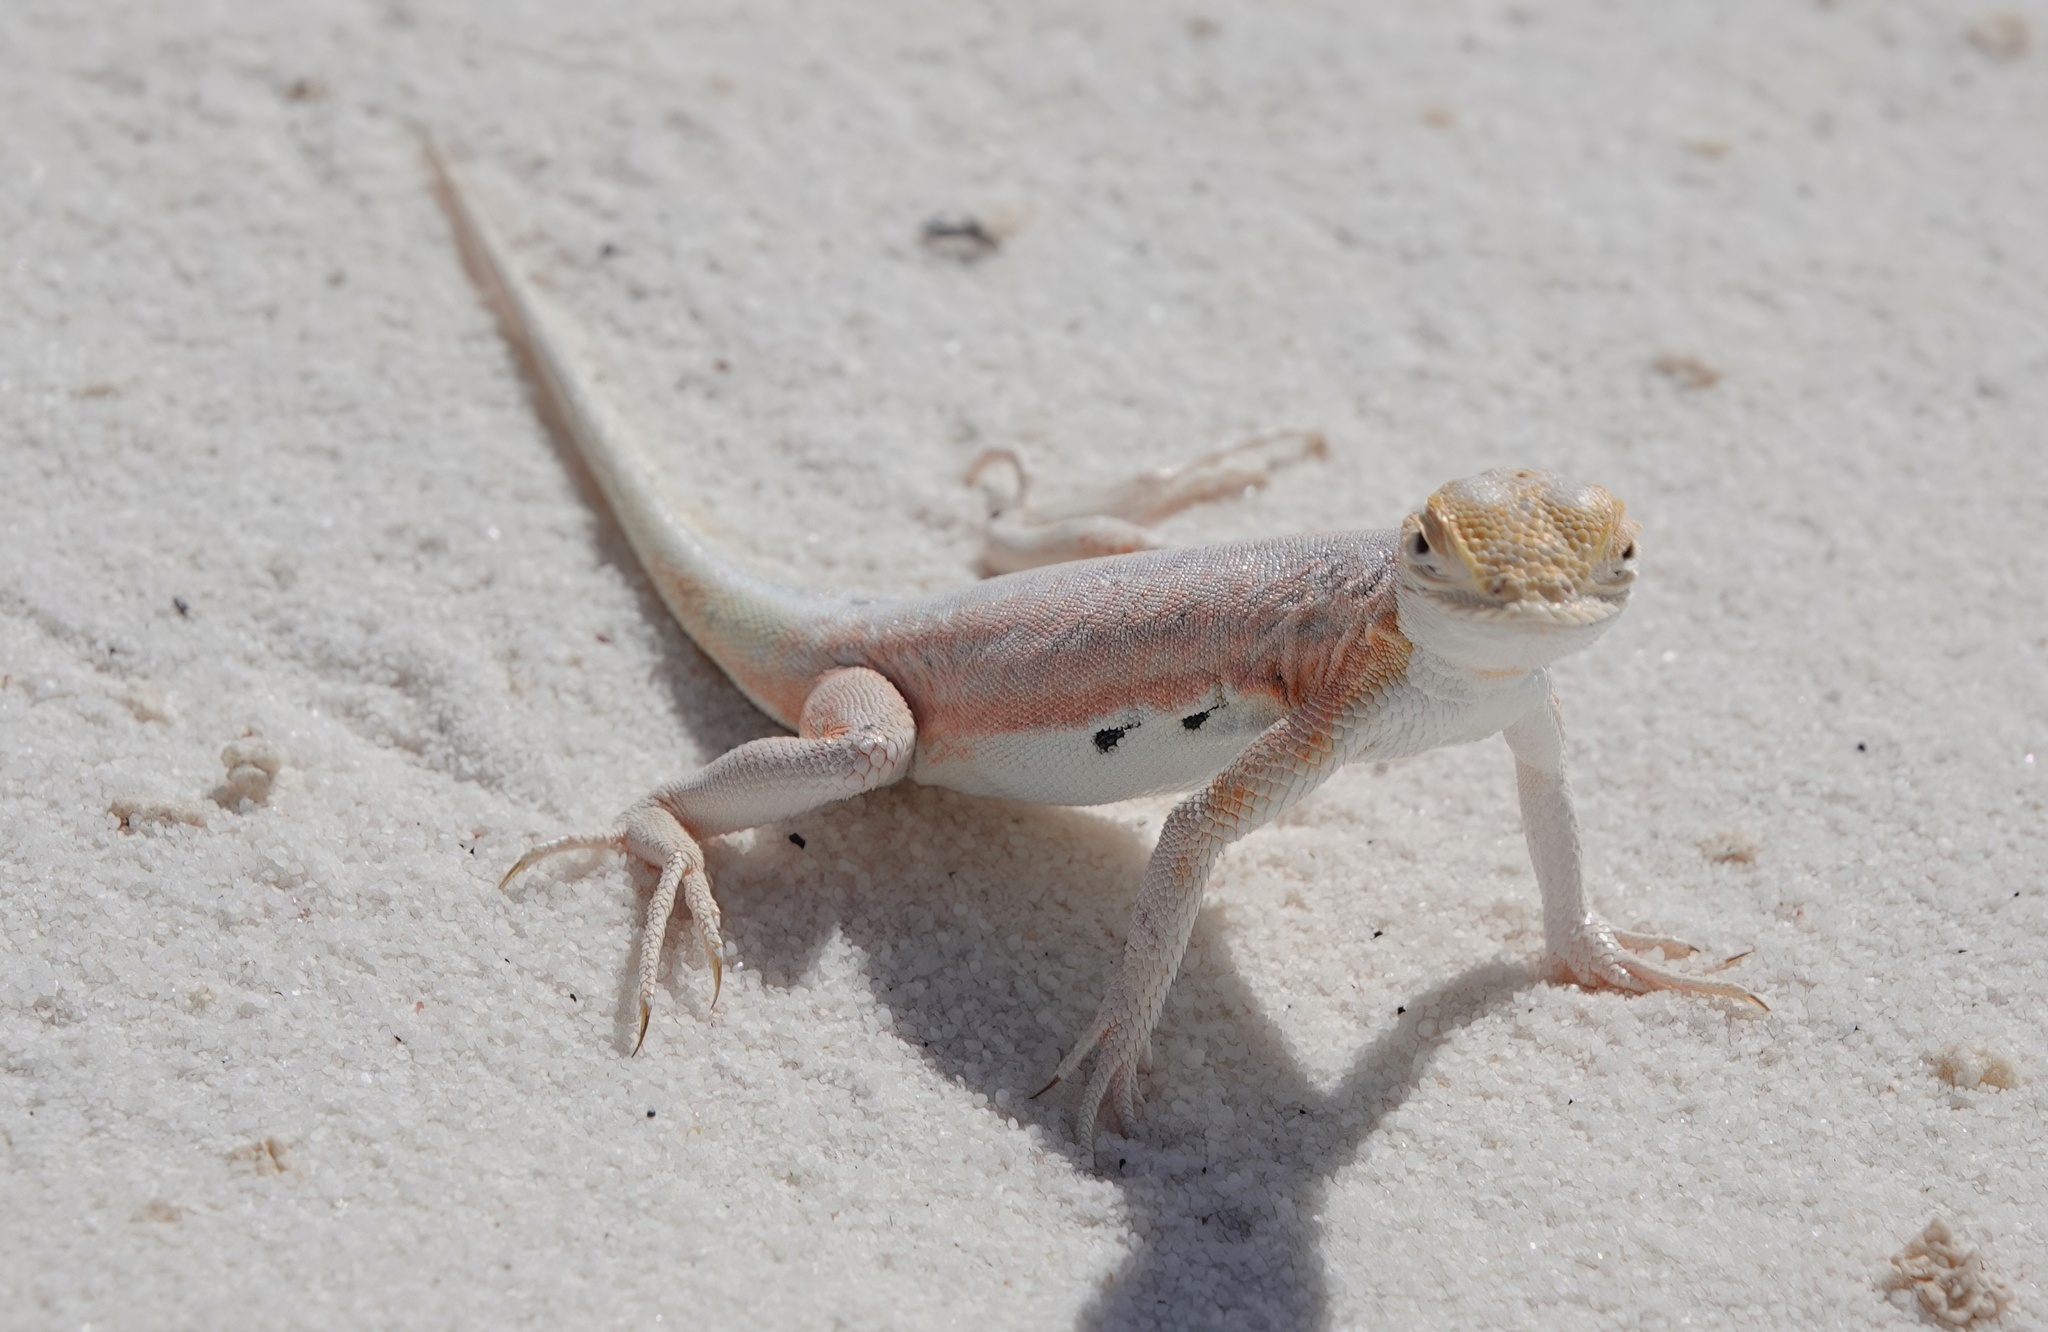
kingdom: Animalia
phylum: Chordata
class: Squamata
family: Phrynosomatidae
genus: Holbrookia
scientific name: Holbrookia maculata
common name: Lesser earless lizard
